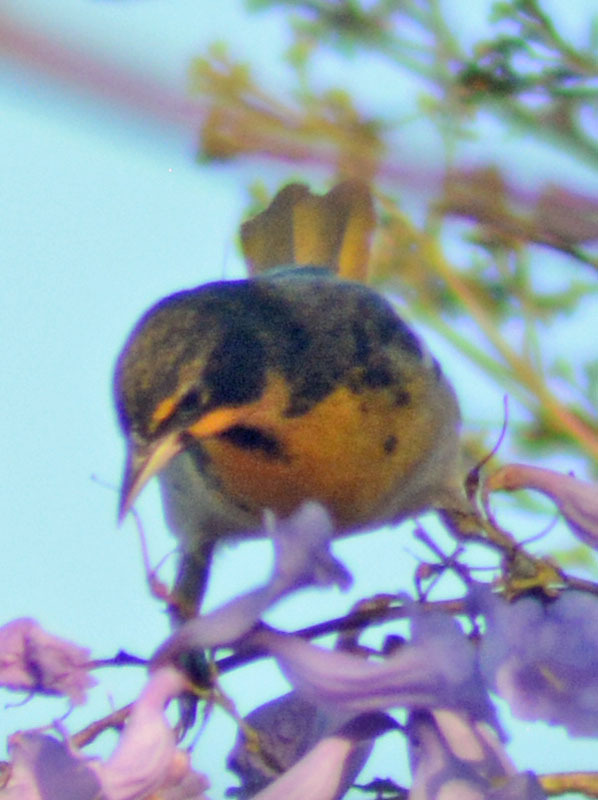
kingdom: Animalia
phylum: Chordata
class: Aves
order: Passeriformes
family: Icteridae
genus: Icterus
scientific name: Icterus abeillei
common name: Black-backed oriole
